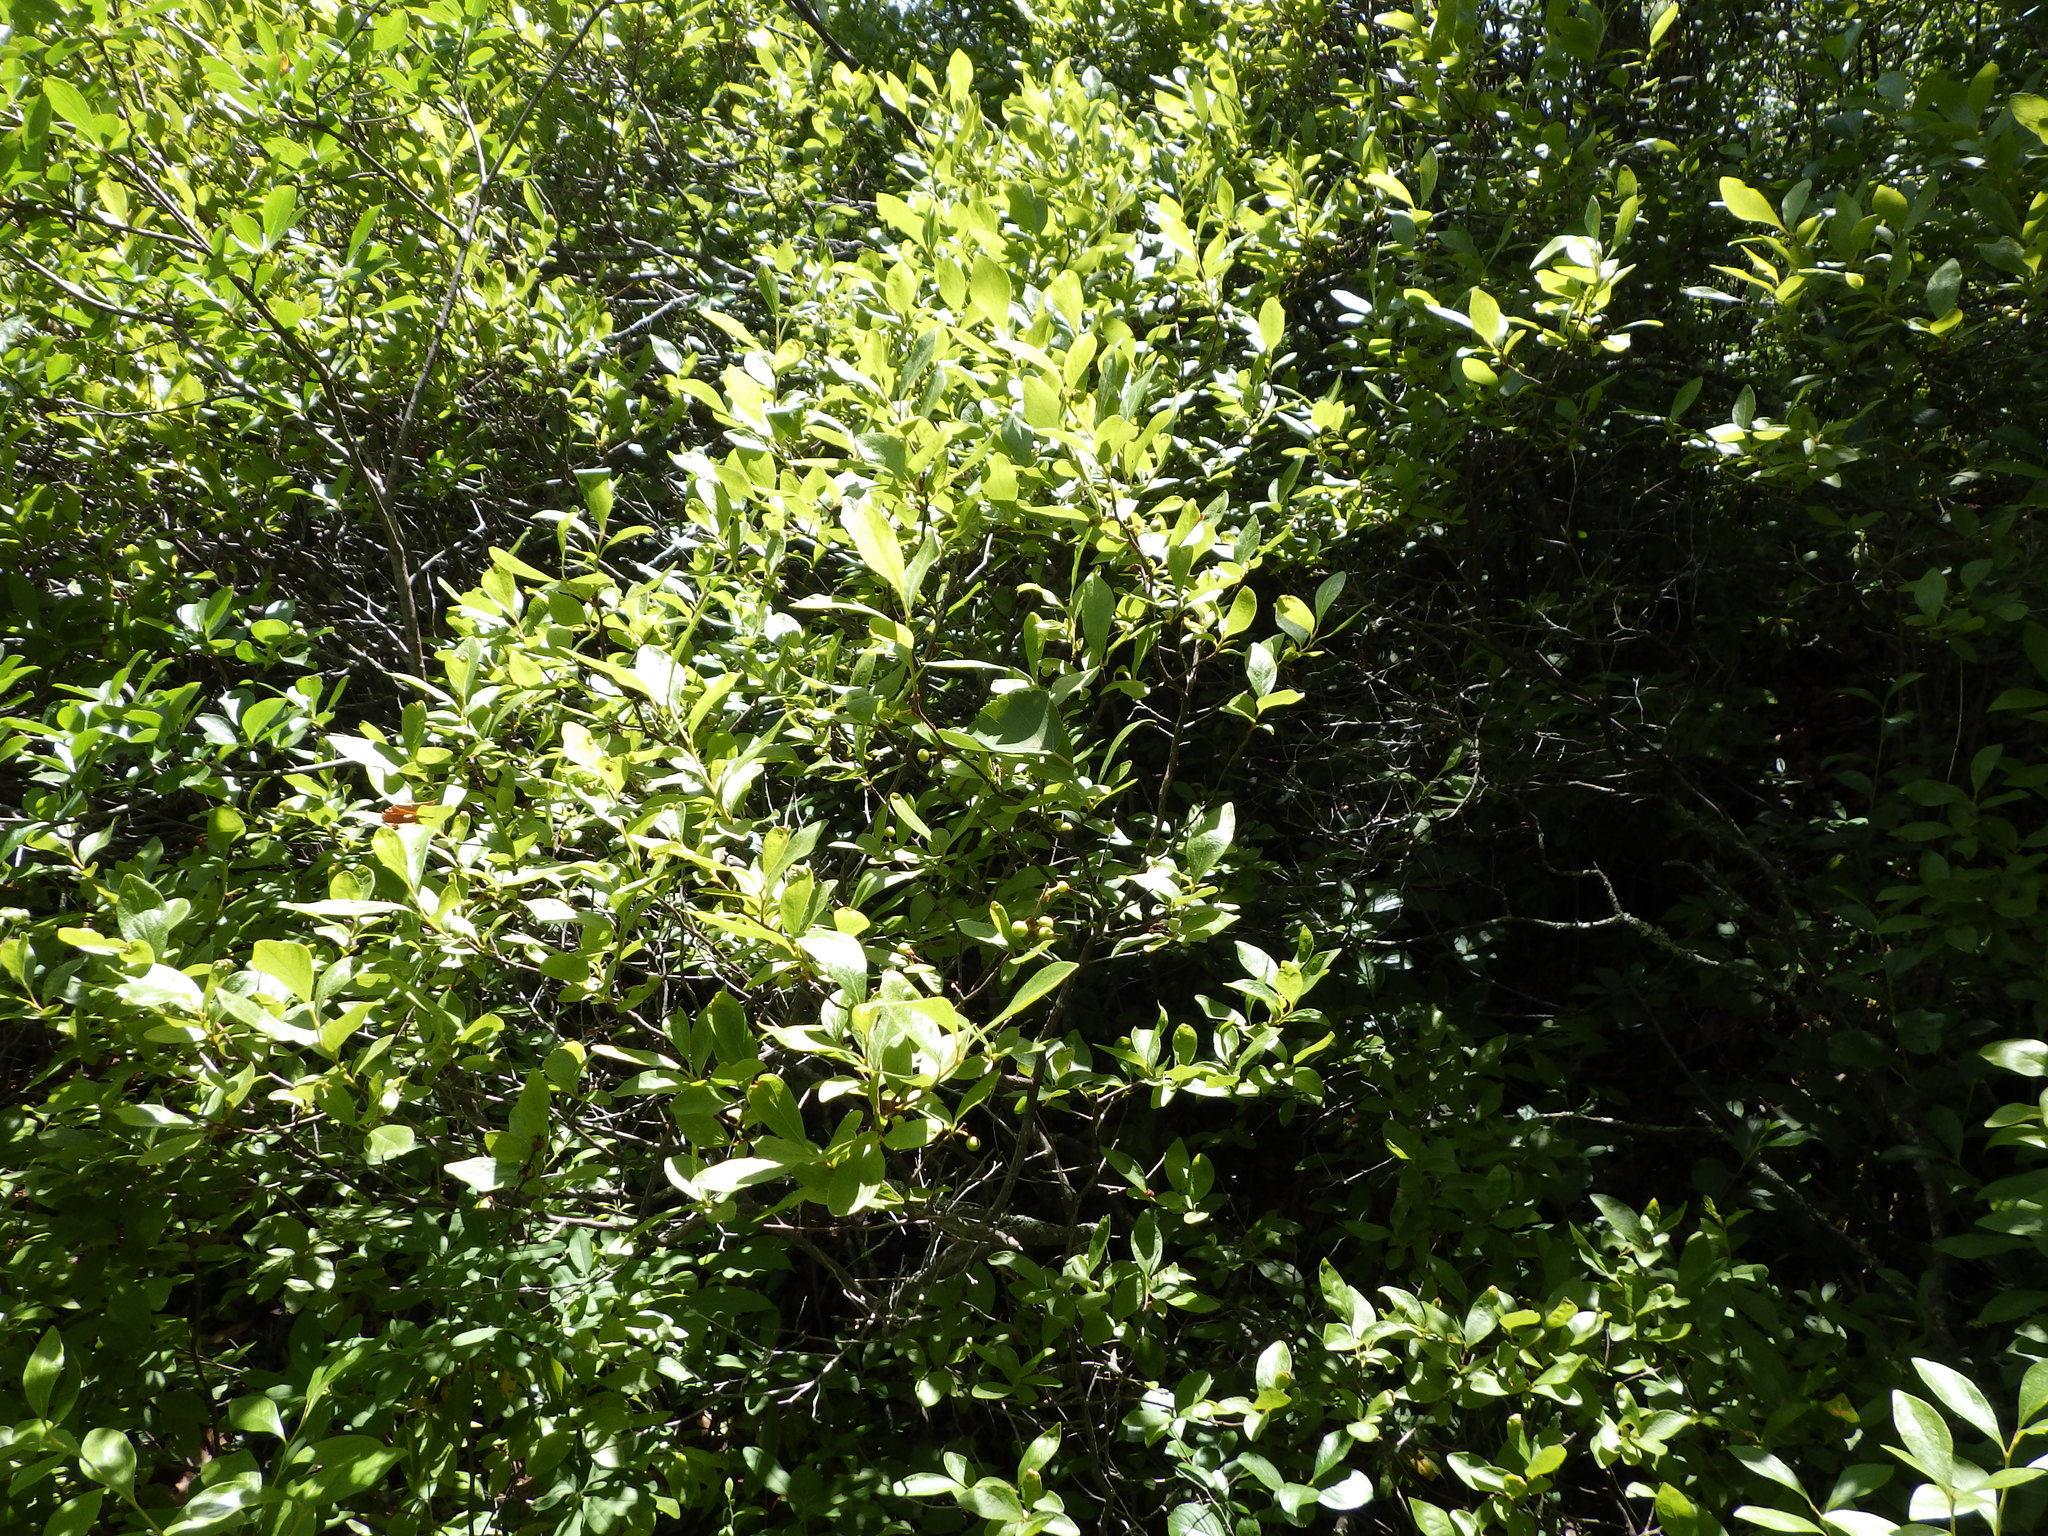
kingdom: Plantae
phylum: Tracheophyta
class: Magnoliopsida
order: Ericales
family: Ericaceae
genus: Gaylussacia
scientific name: Gaylussacia baccata
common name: Black huckleberry
